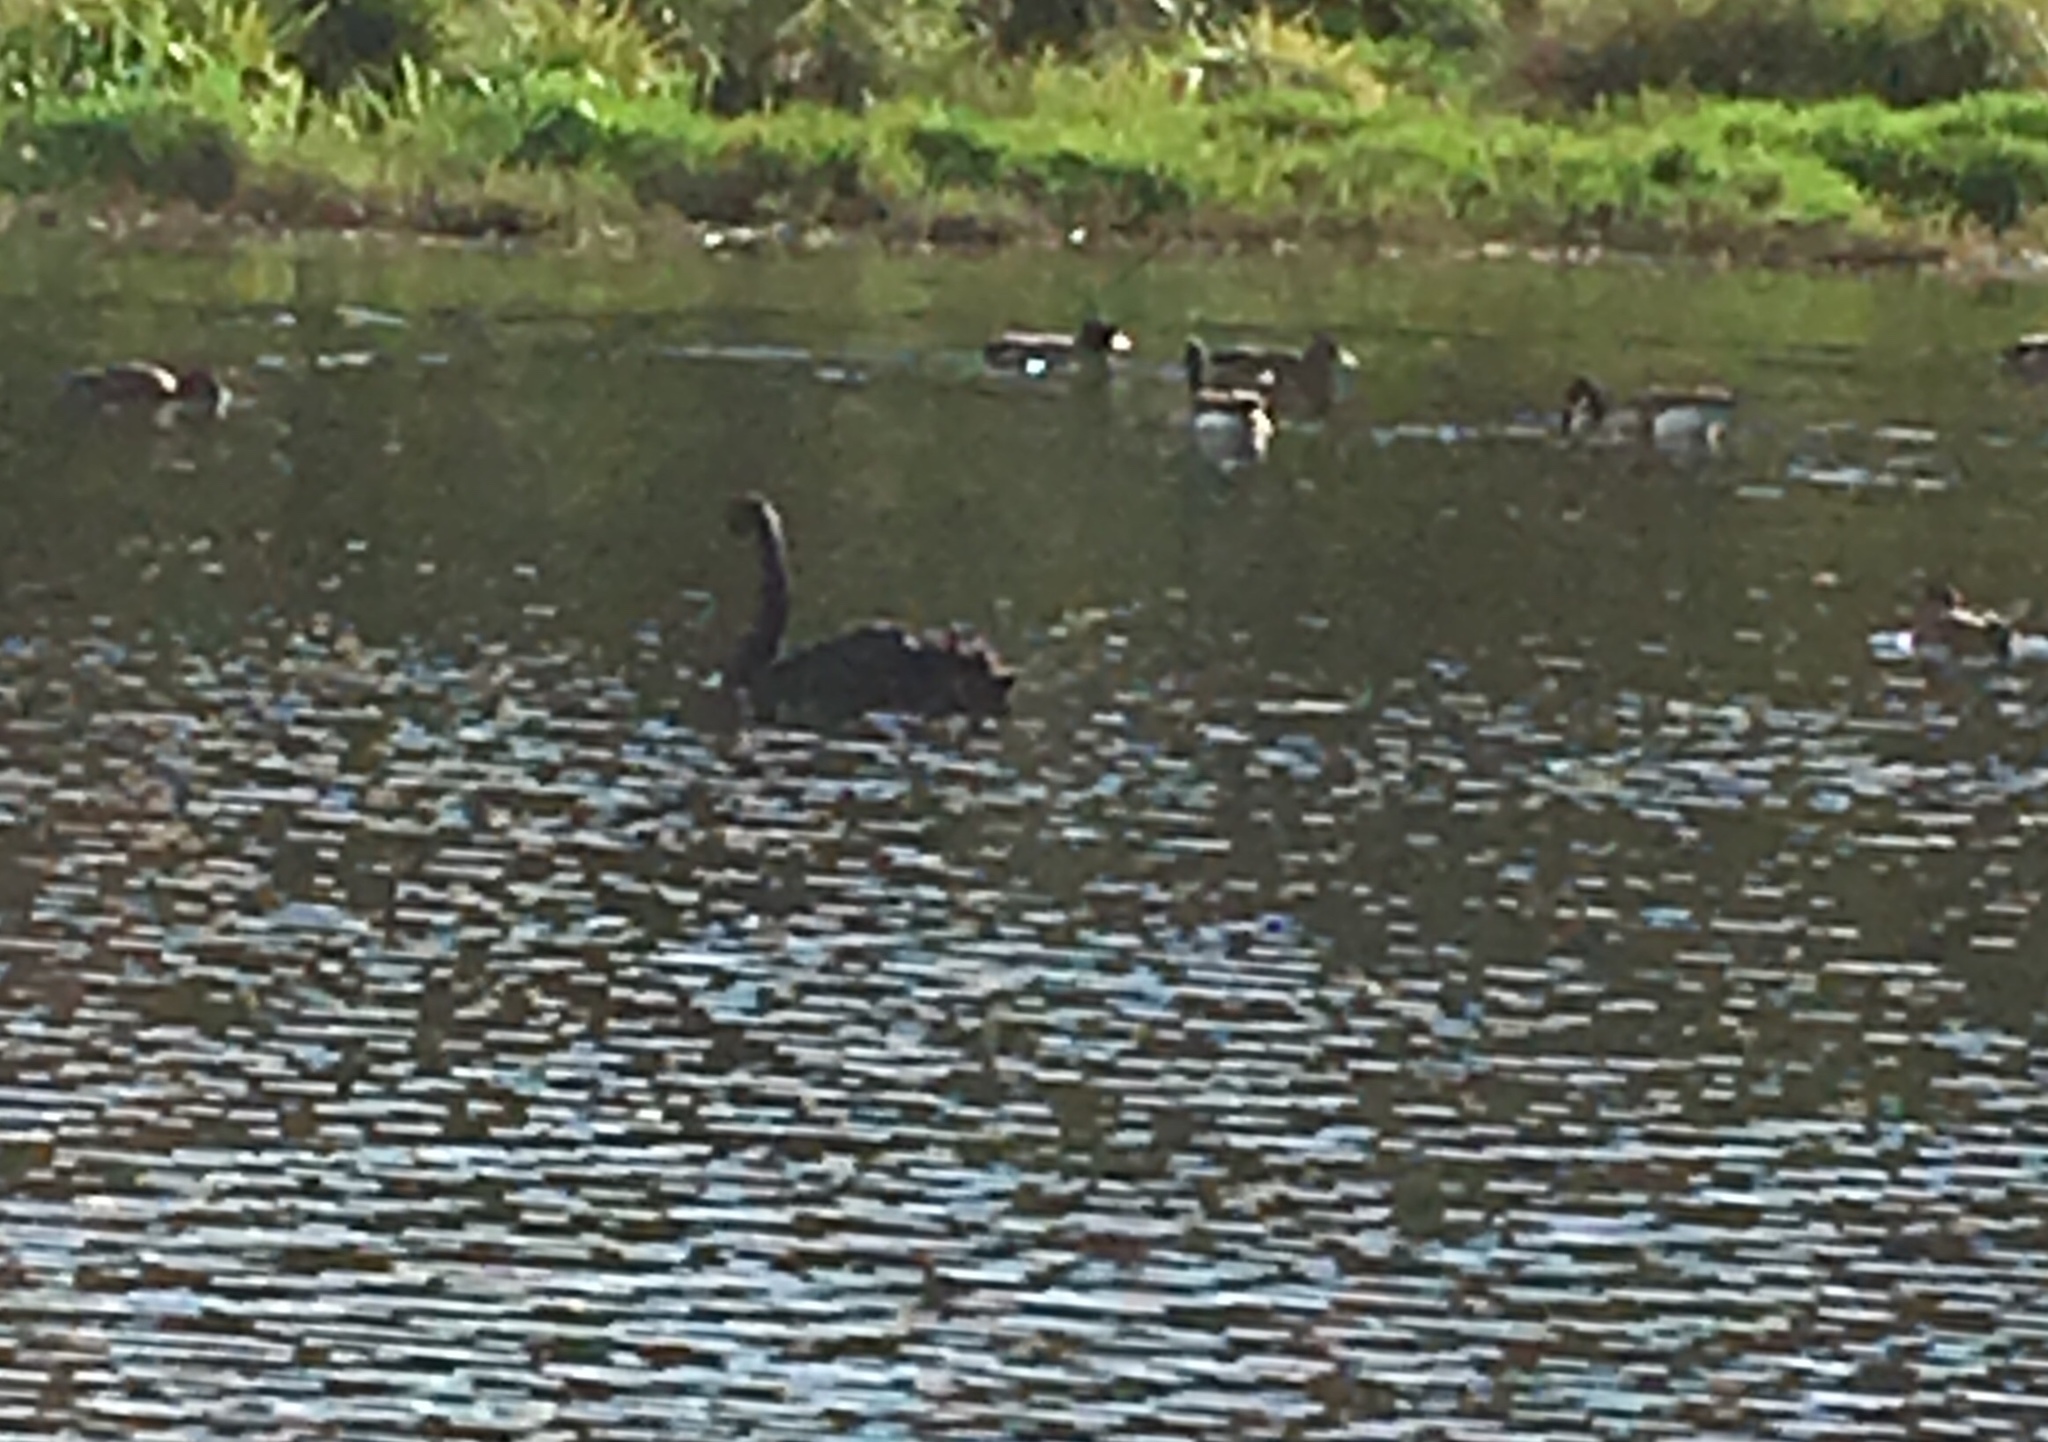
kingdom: Animalia
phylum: Chordata
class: Aves
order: Anseriformes
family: Anatidae
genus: Cygnus
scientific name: Cygnus atratus
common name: Black swan
